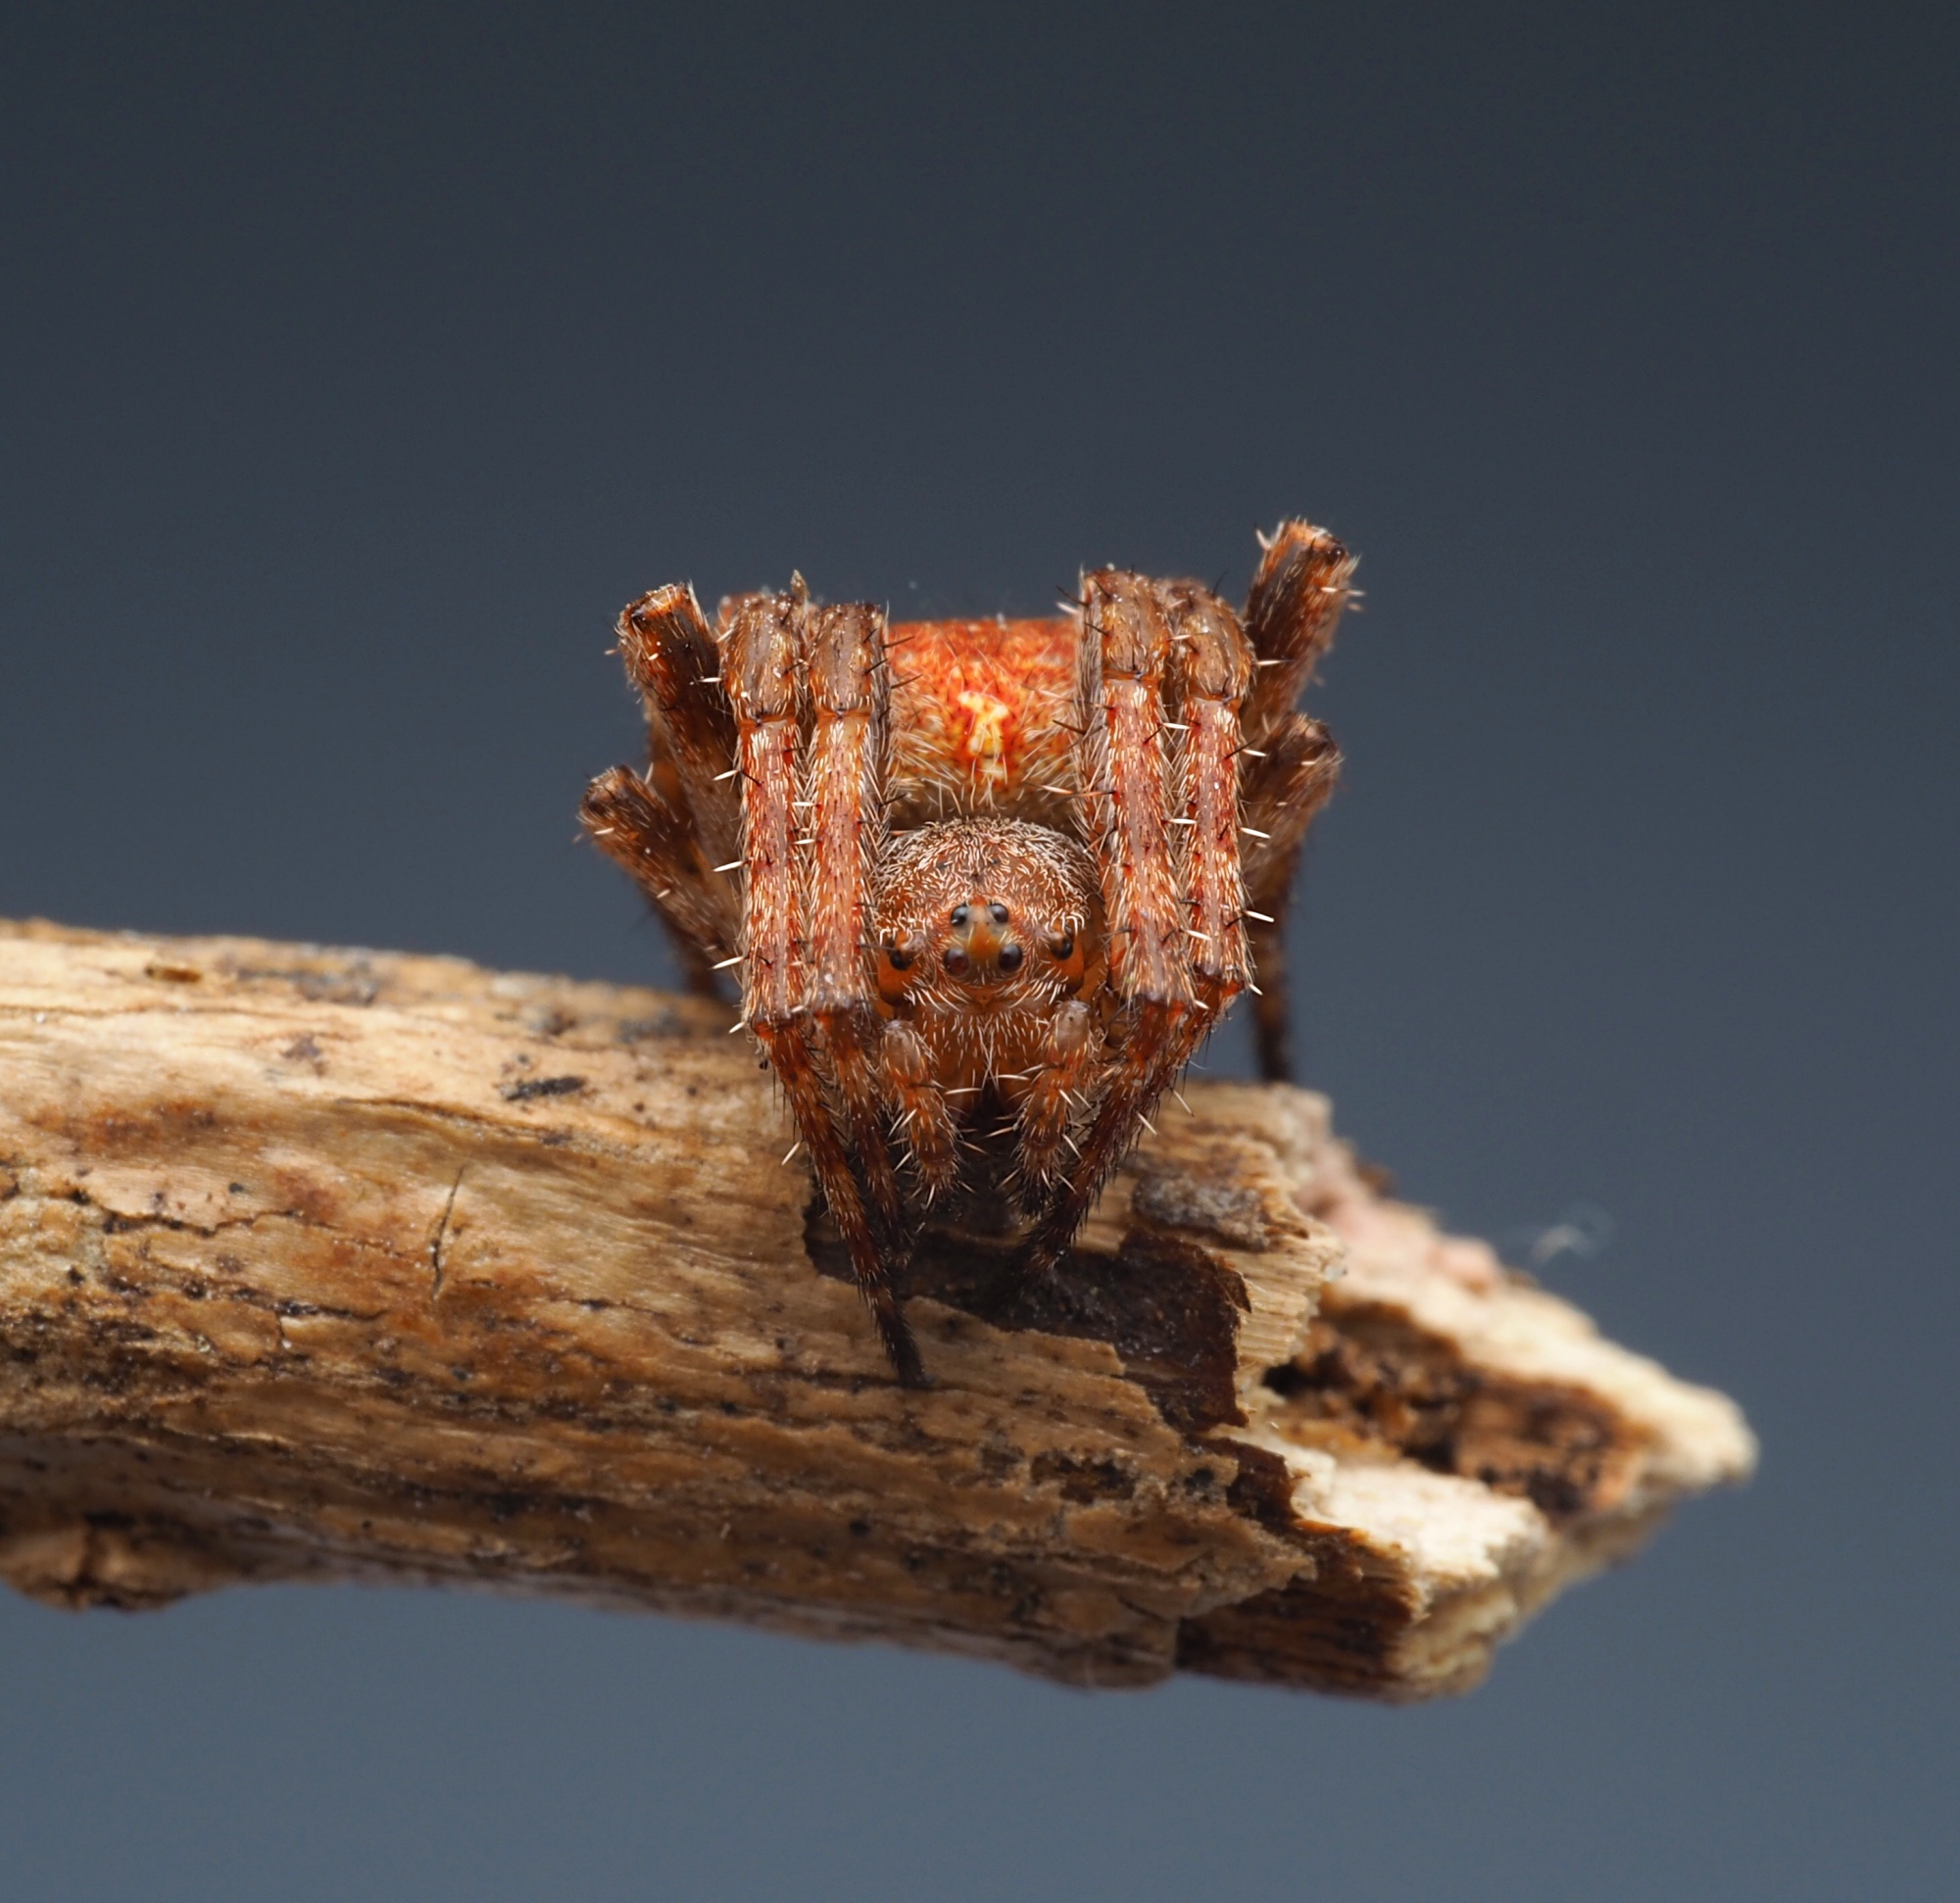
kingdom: Animalia
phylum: Arthropoda
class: Arachnida
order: Araneae
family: Araneidae
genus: Novakiella
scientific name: Novakiella trituberculosa
